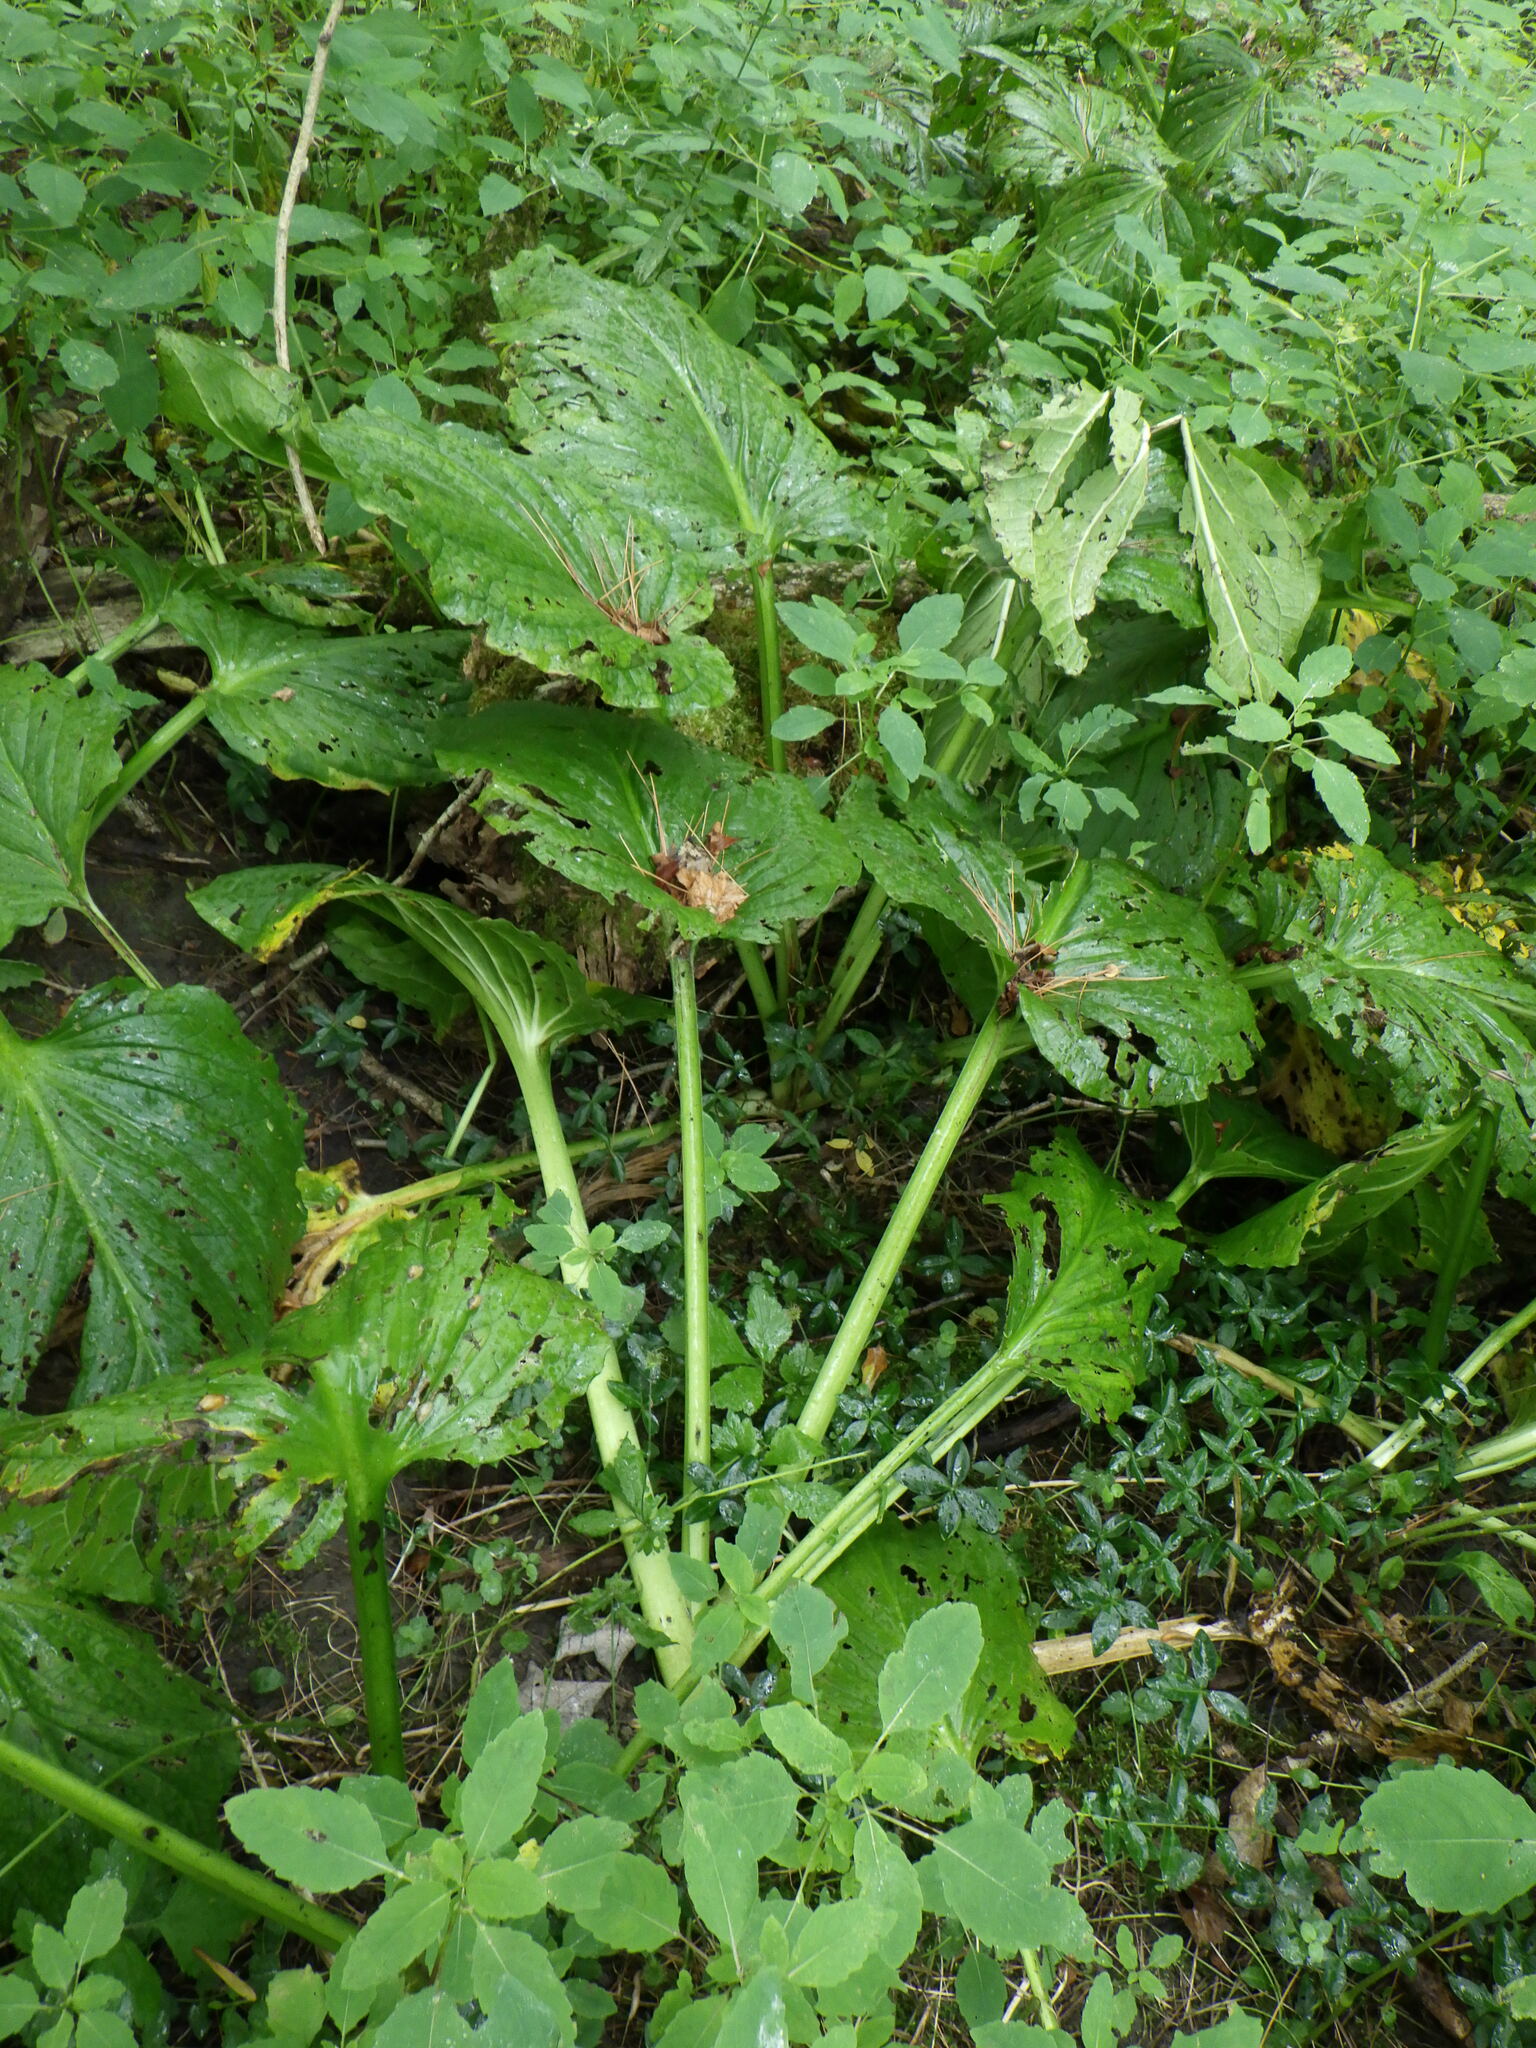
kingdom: Plantae
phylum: Tracheophyta
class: Liliopsida
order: Alismatales
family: Araceae
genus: Symplocarpus
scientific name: Symplocarpus foetidus
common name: Eastern skunk cabbage
